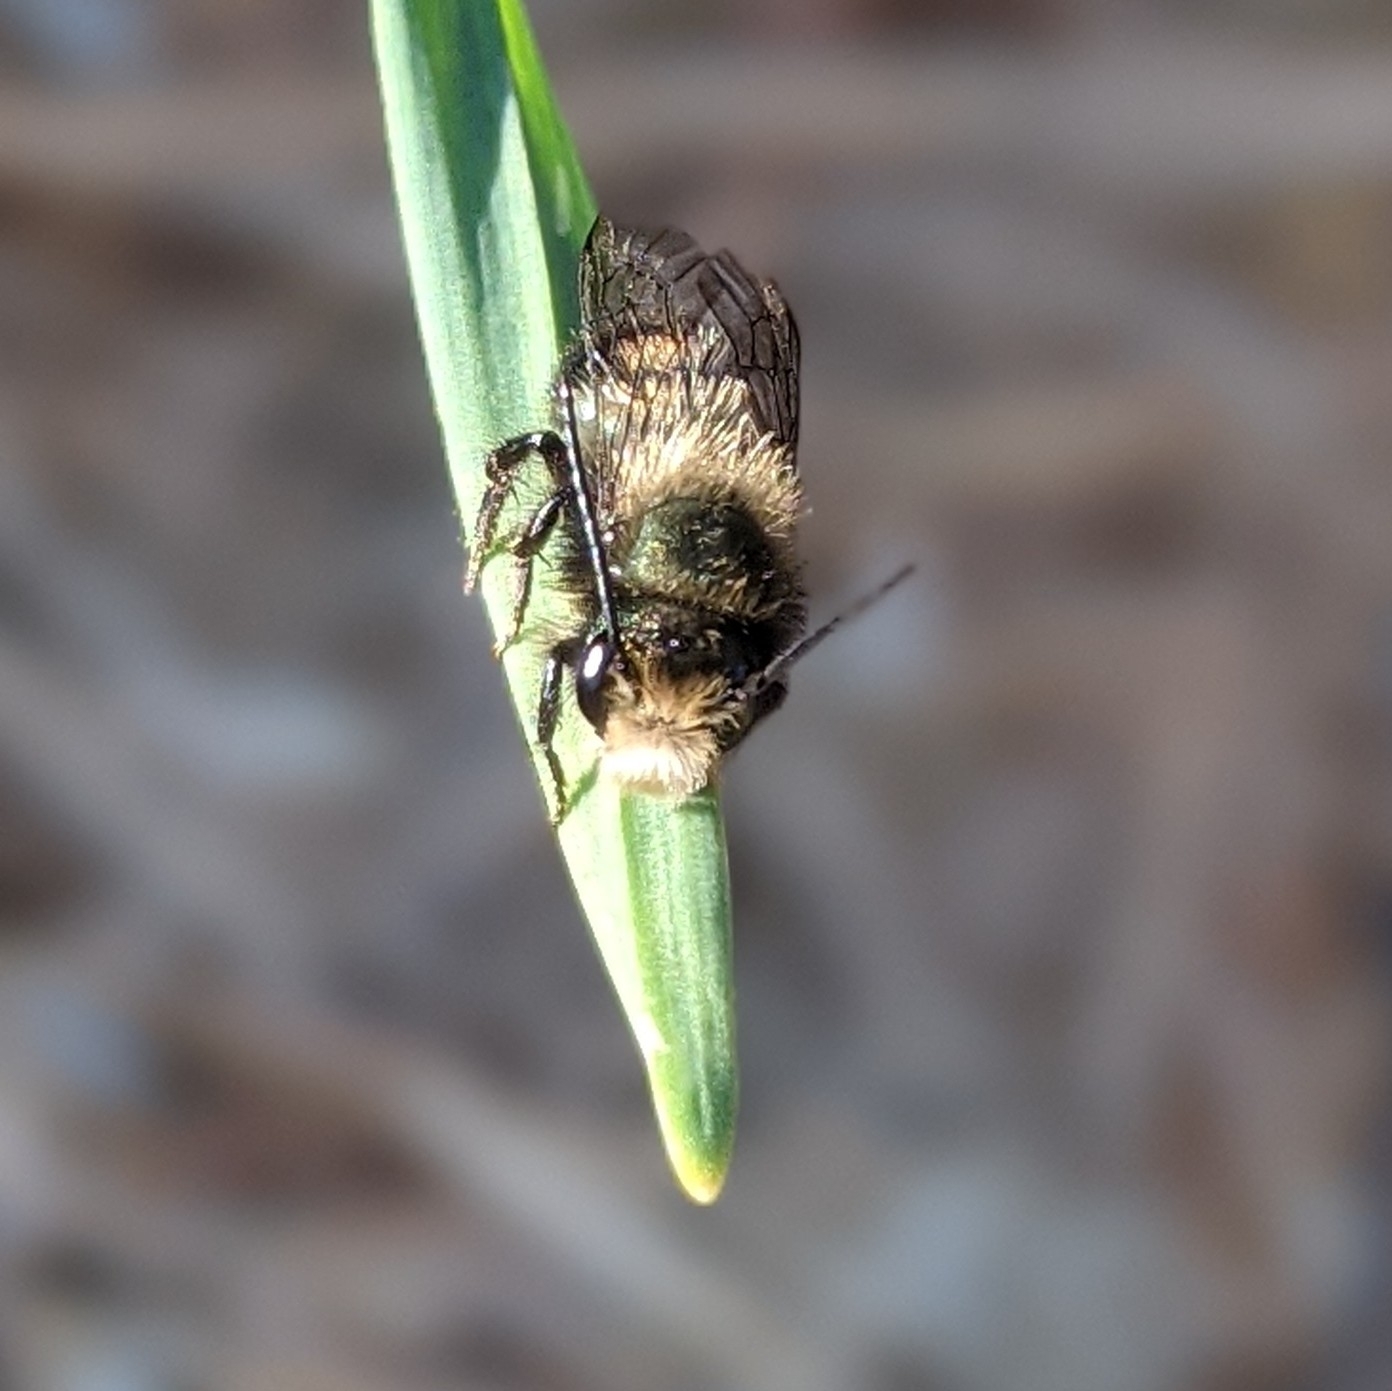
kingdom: Animalia
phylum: Arthropoda
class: Insecta
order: Hymenoptera
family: Megachilidae
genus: Osmia
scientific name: Osmia lignaria
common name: Blue orchard bee
